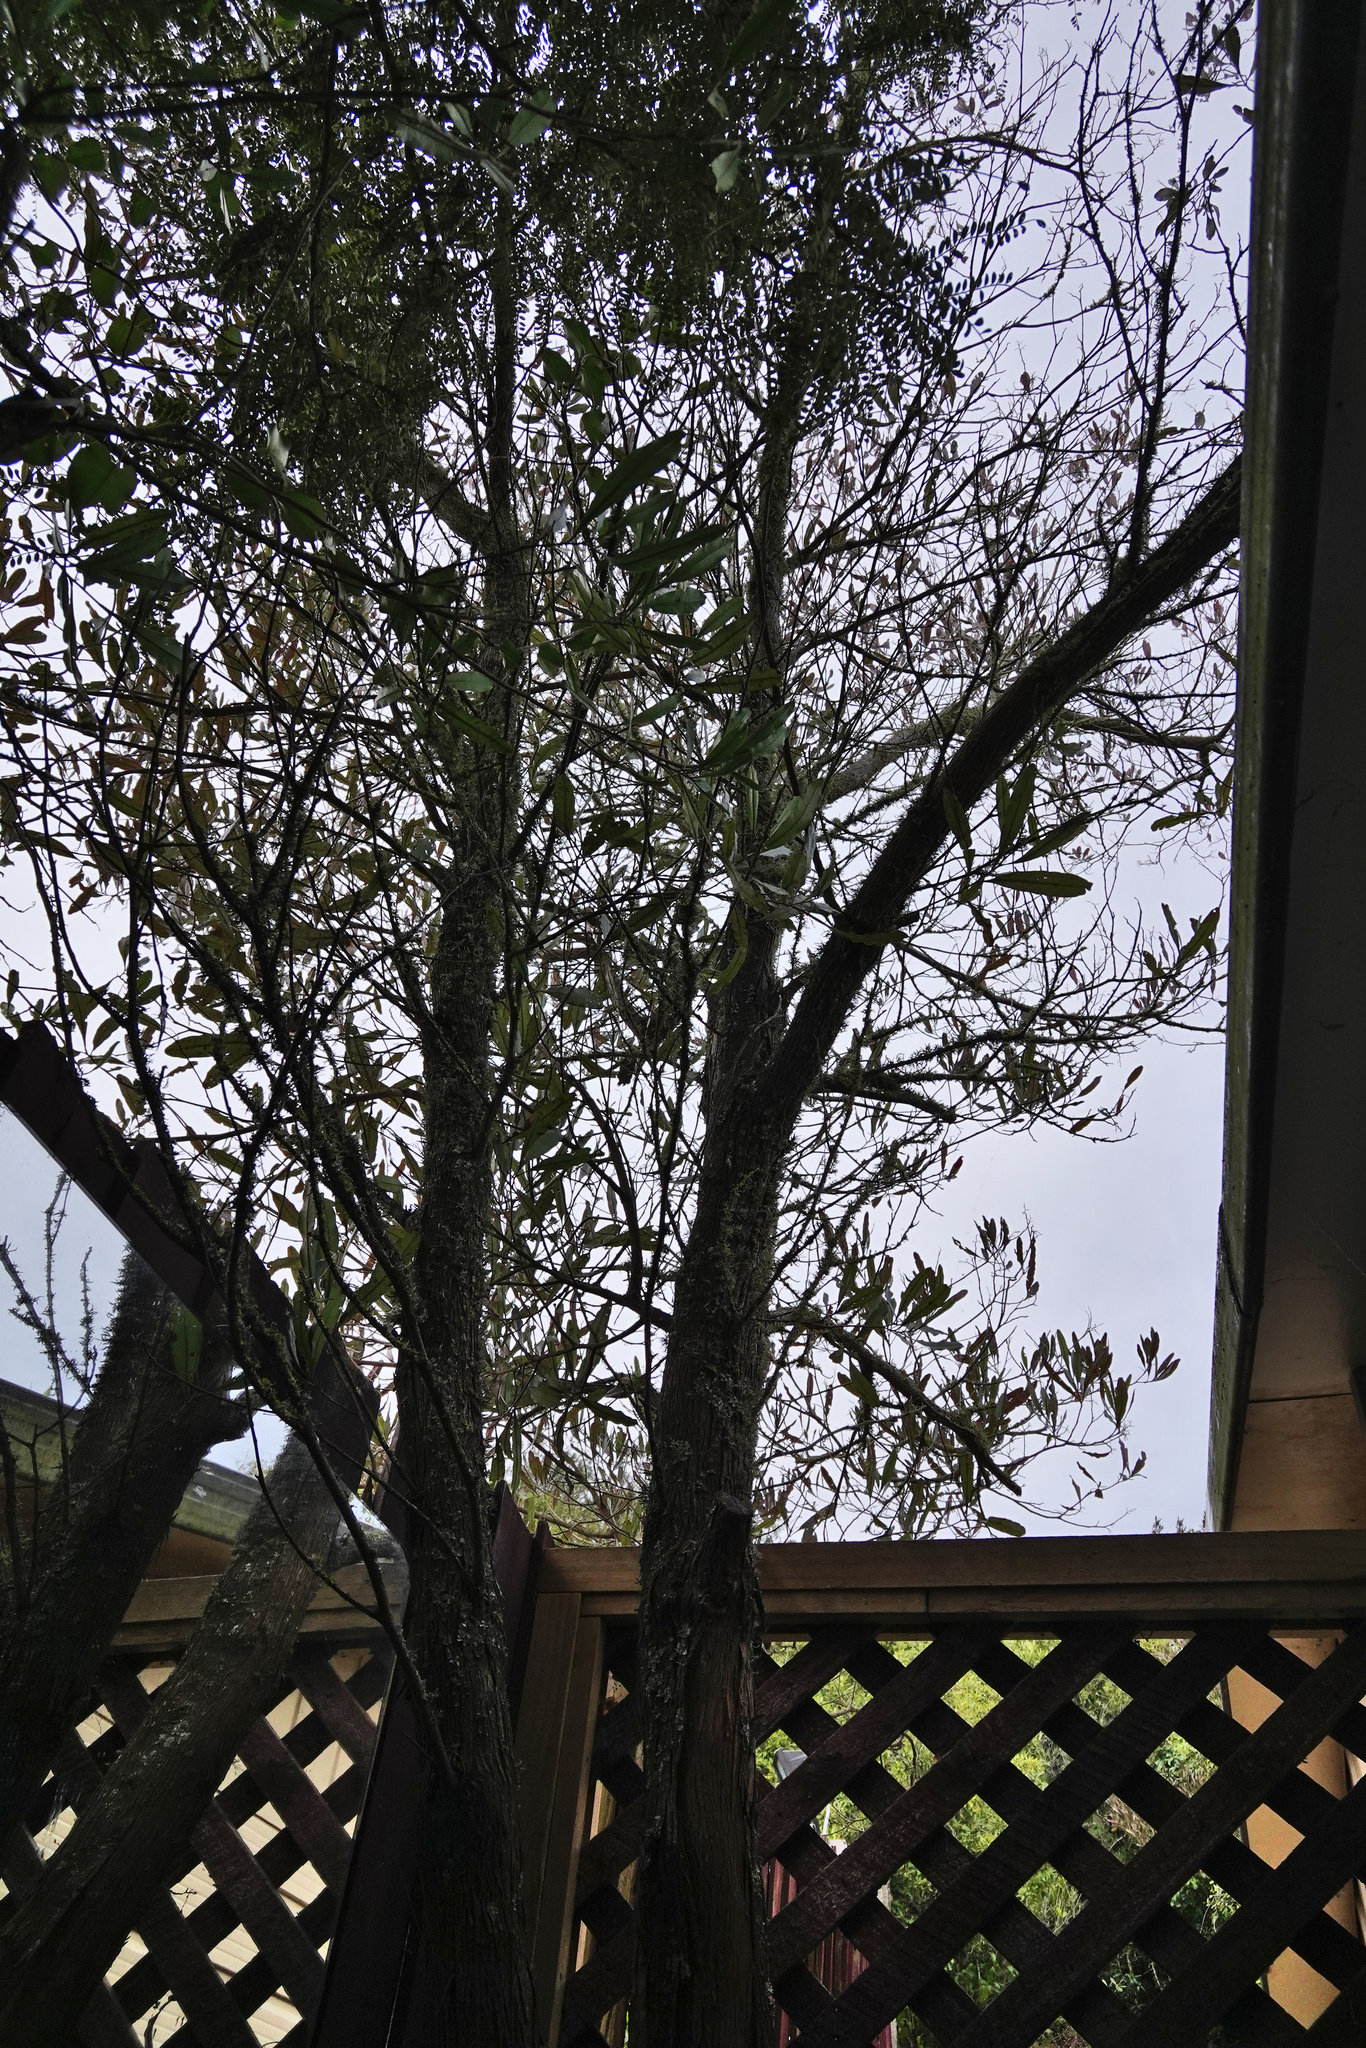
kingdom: Plantae
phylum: Tracheophyta
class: Magnoliopsida
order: Sapindales
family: Sapindaceae
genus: Dodonaea
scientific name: Dodonaea viscosa
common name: Hopbush
